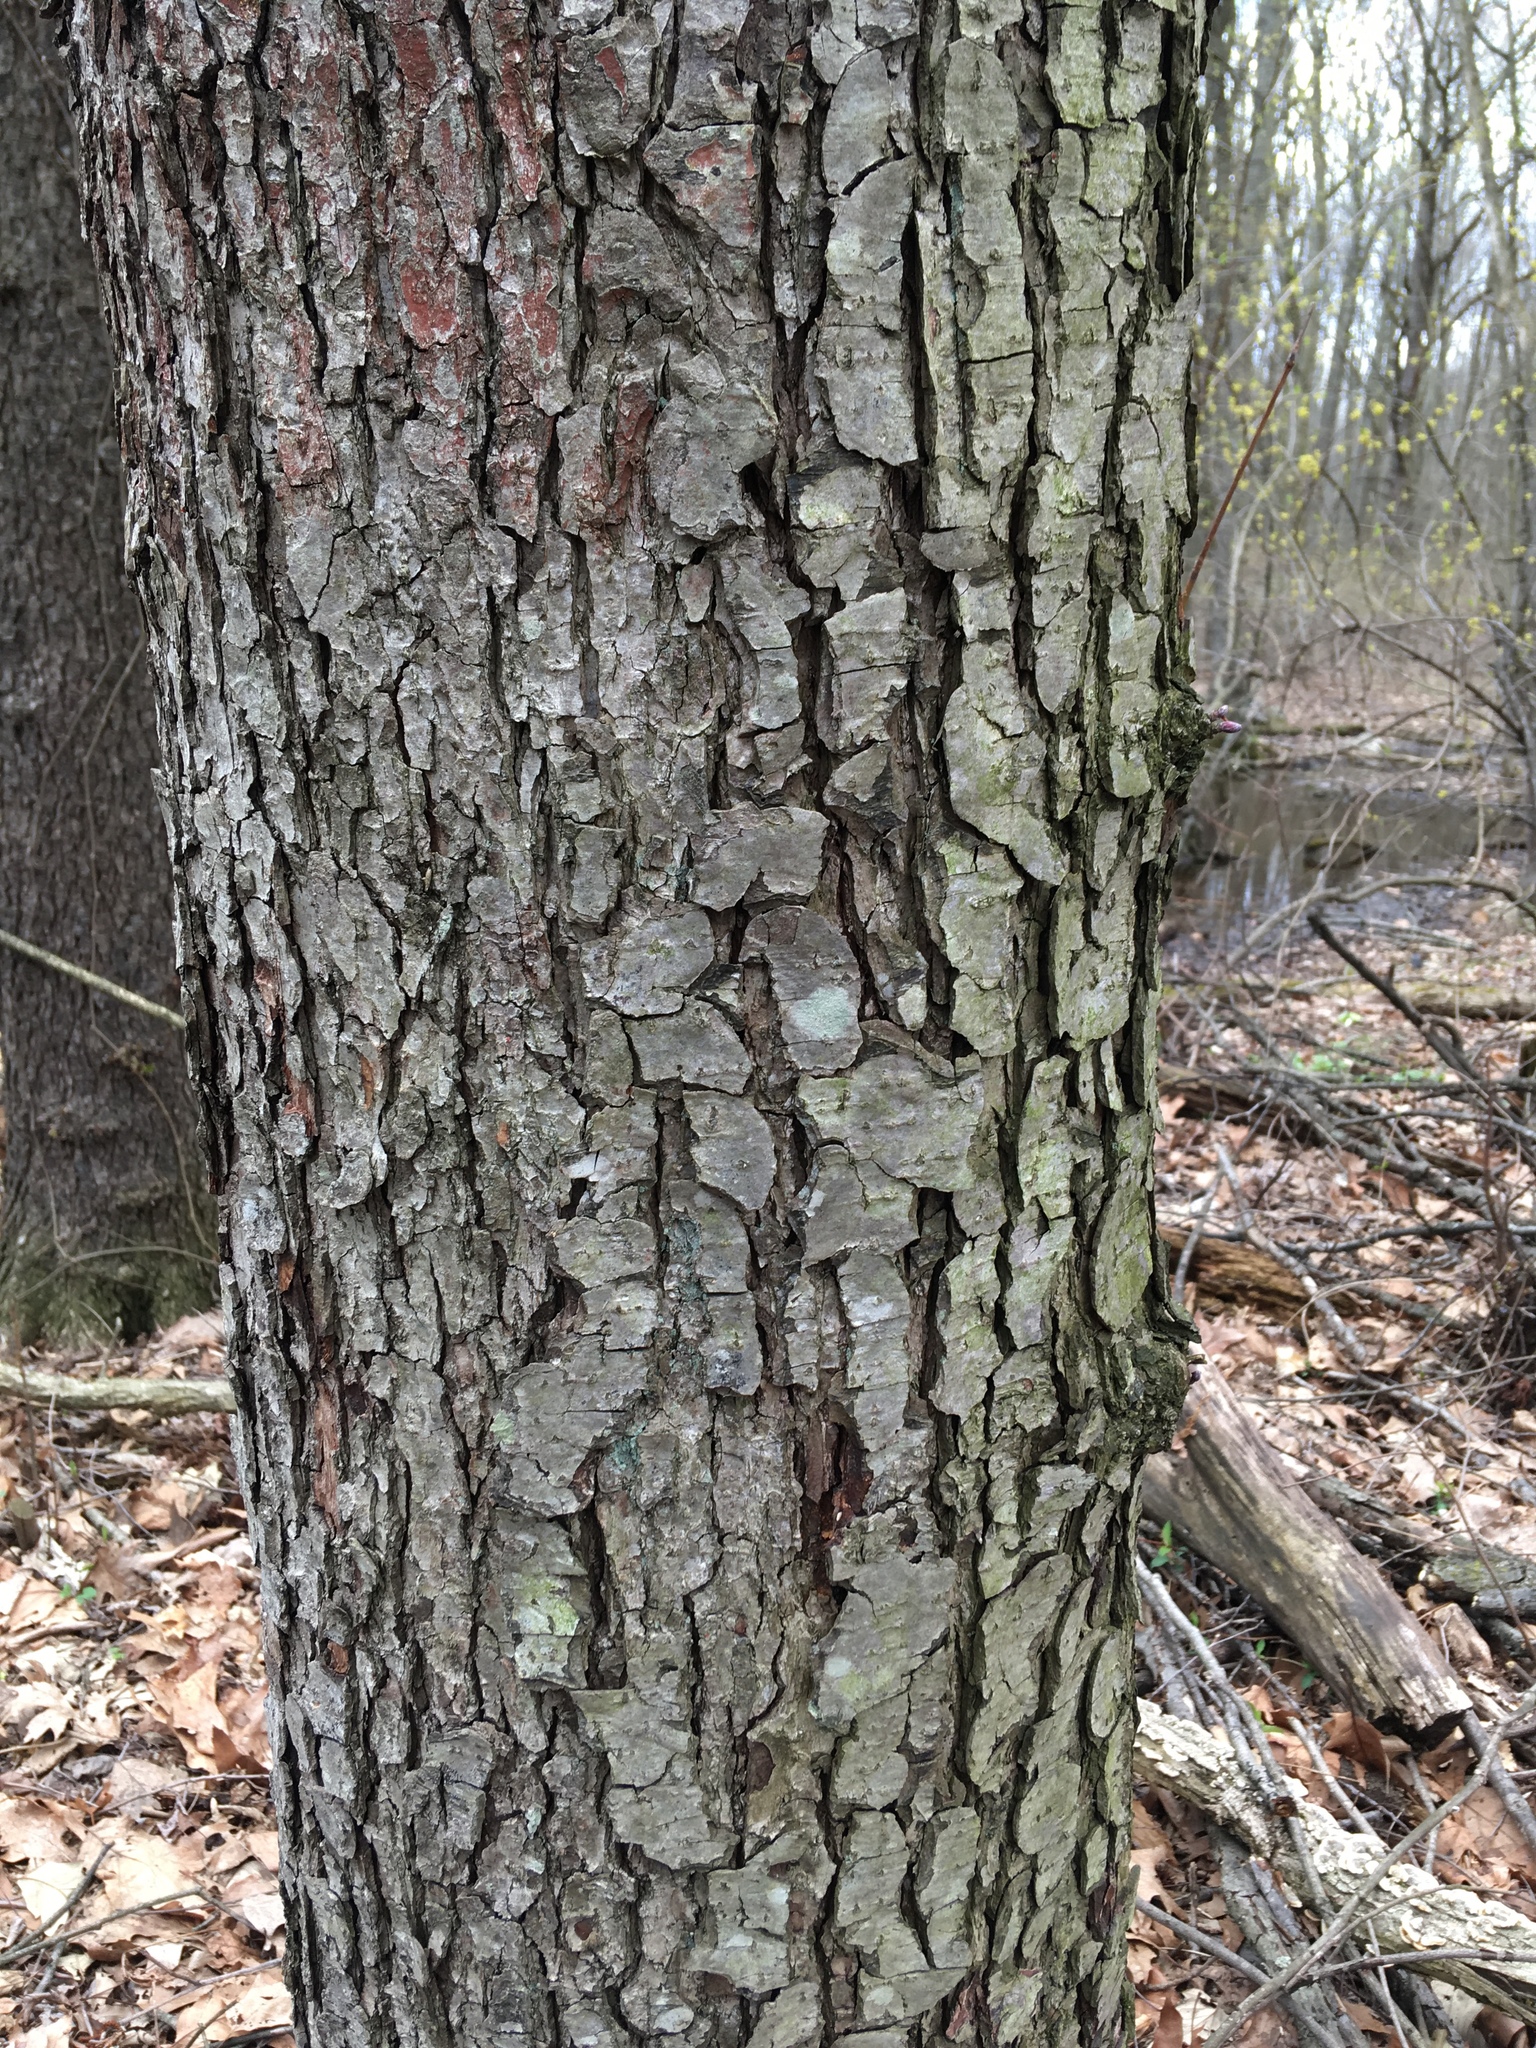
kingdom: Plantae
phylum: Tracheophyta
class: Magnoliopsida
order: Rosales
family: Rosaceae
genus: Prunus
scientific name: Prunus serotina
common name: Black cherry
